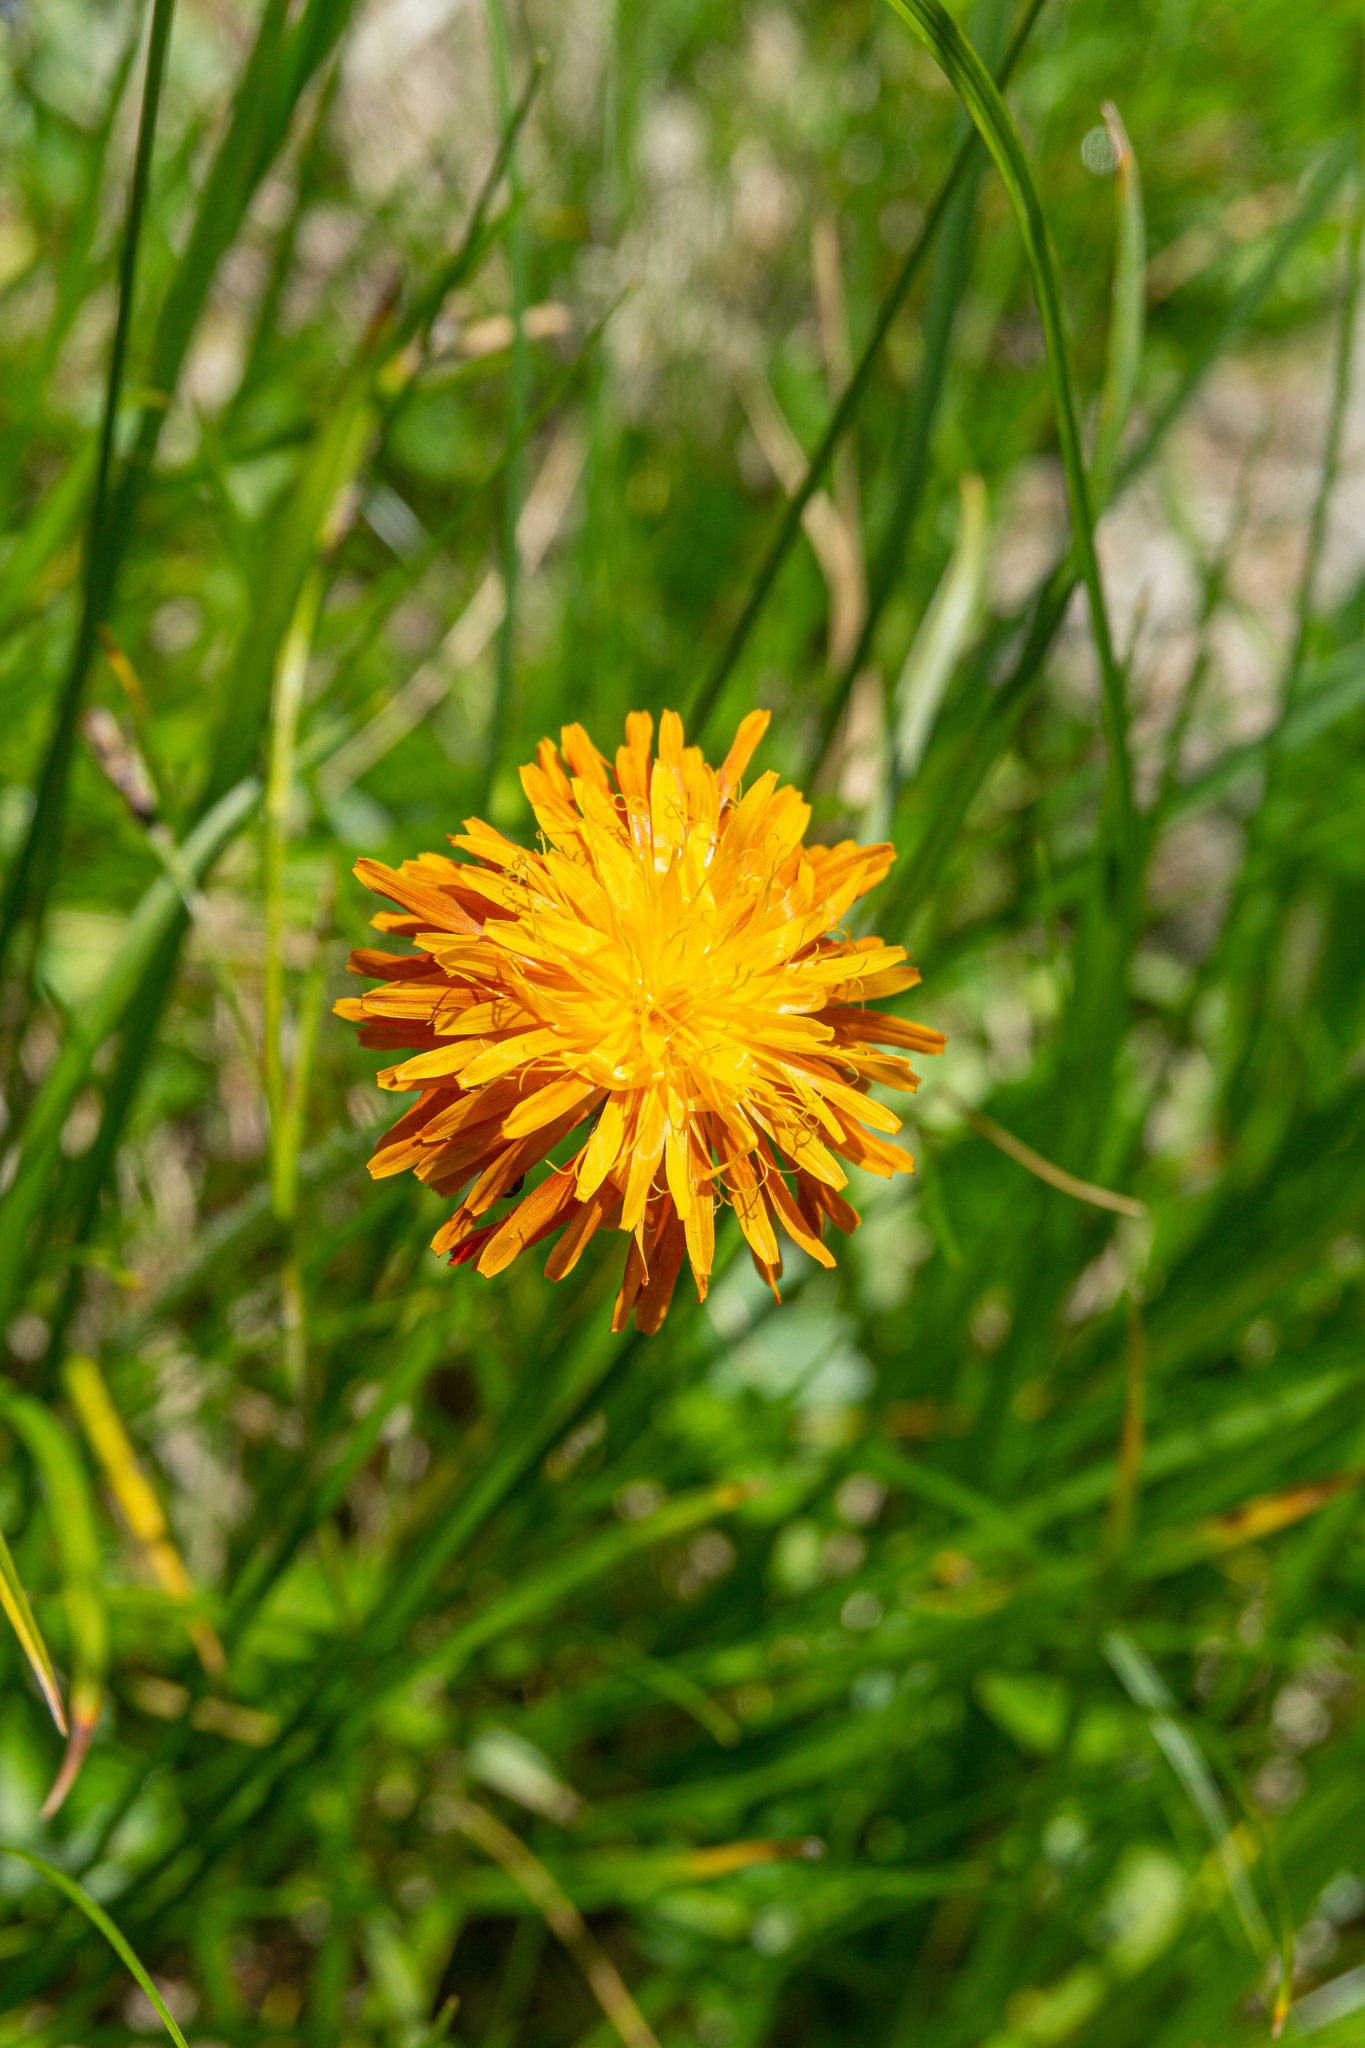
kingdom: Plantae
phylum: Tracheophyta
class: Magnoliopsida
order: Asterales
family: Asteraceae
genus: Crepis
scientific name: Crepis aurea
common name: Golden hawk's-beard
